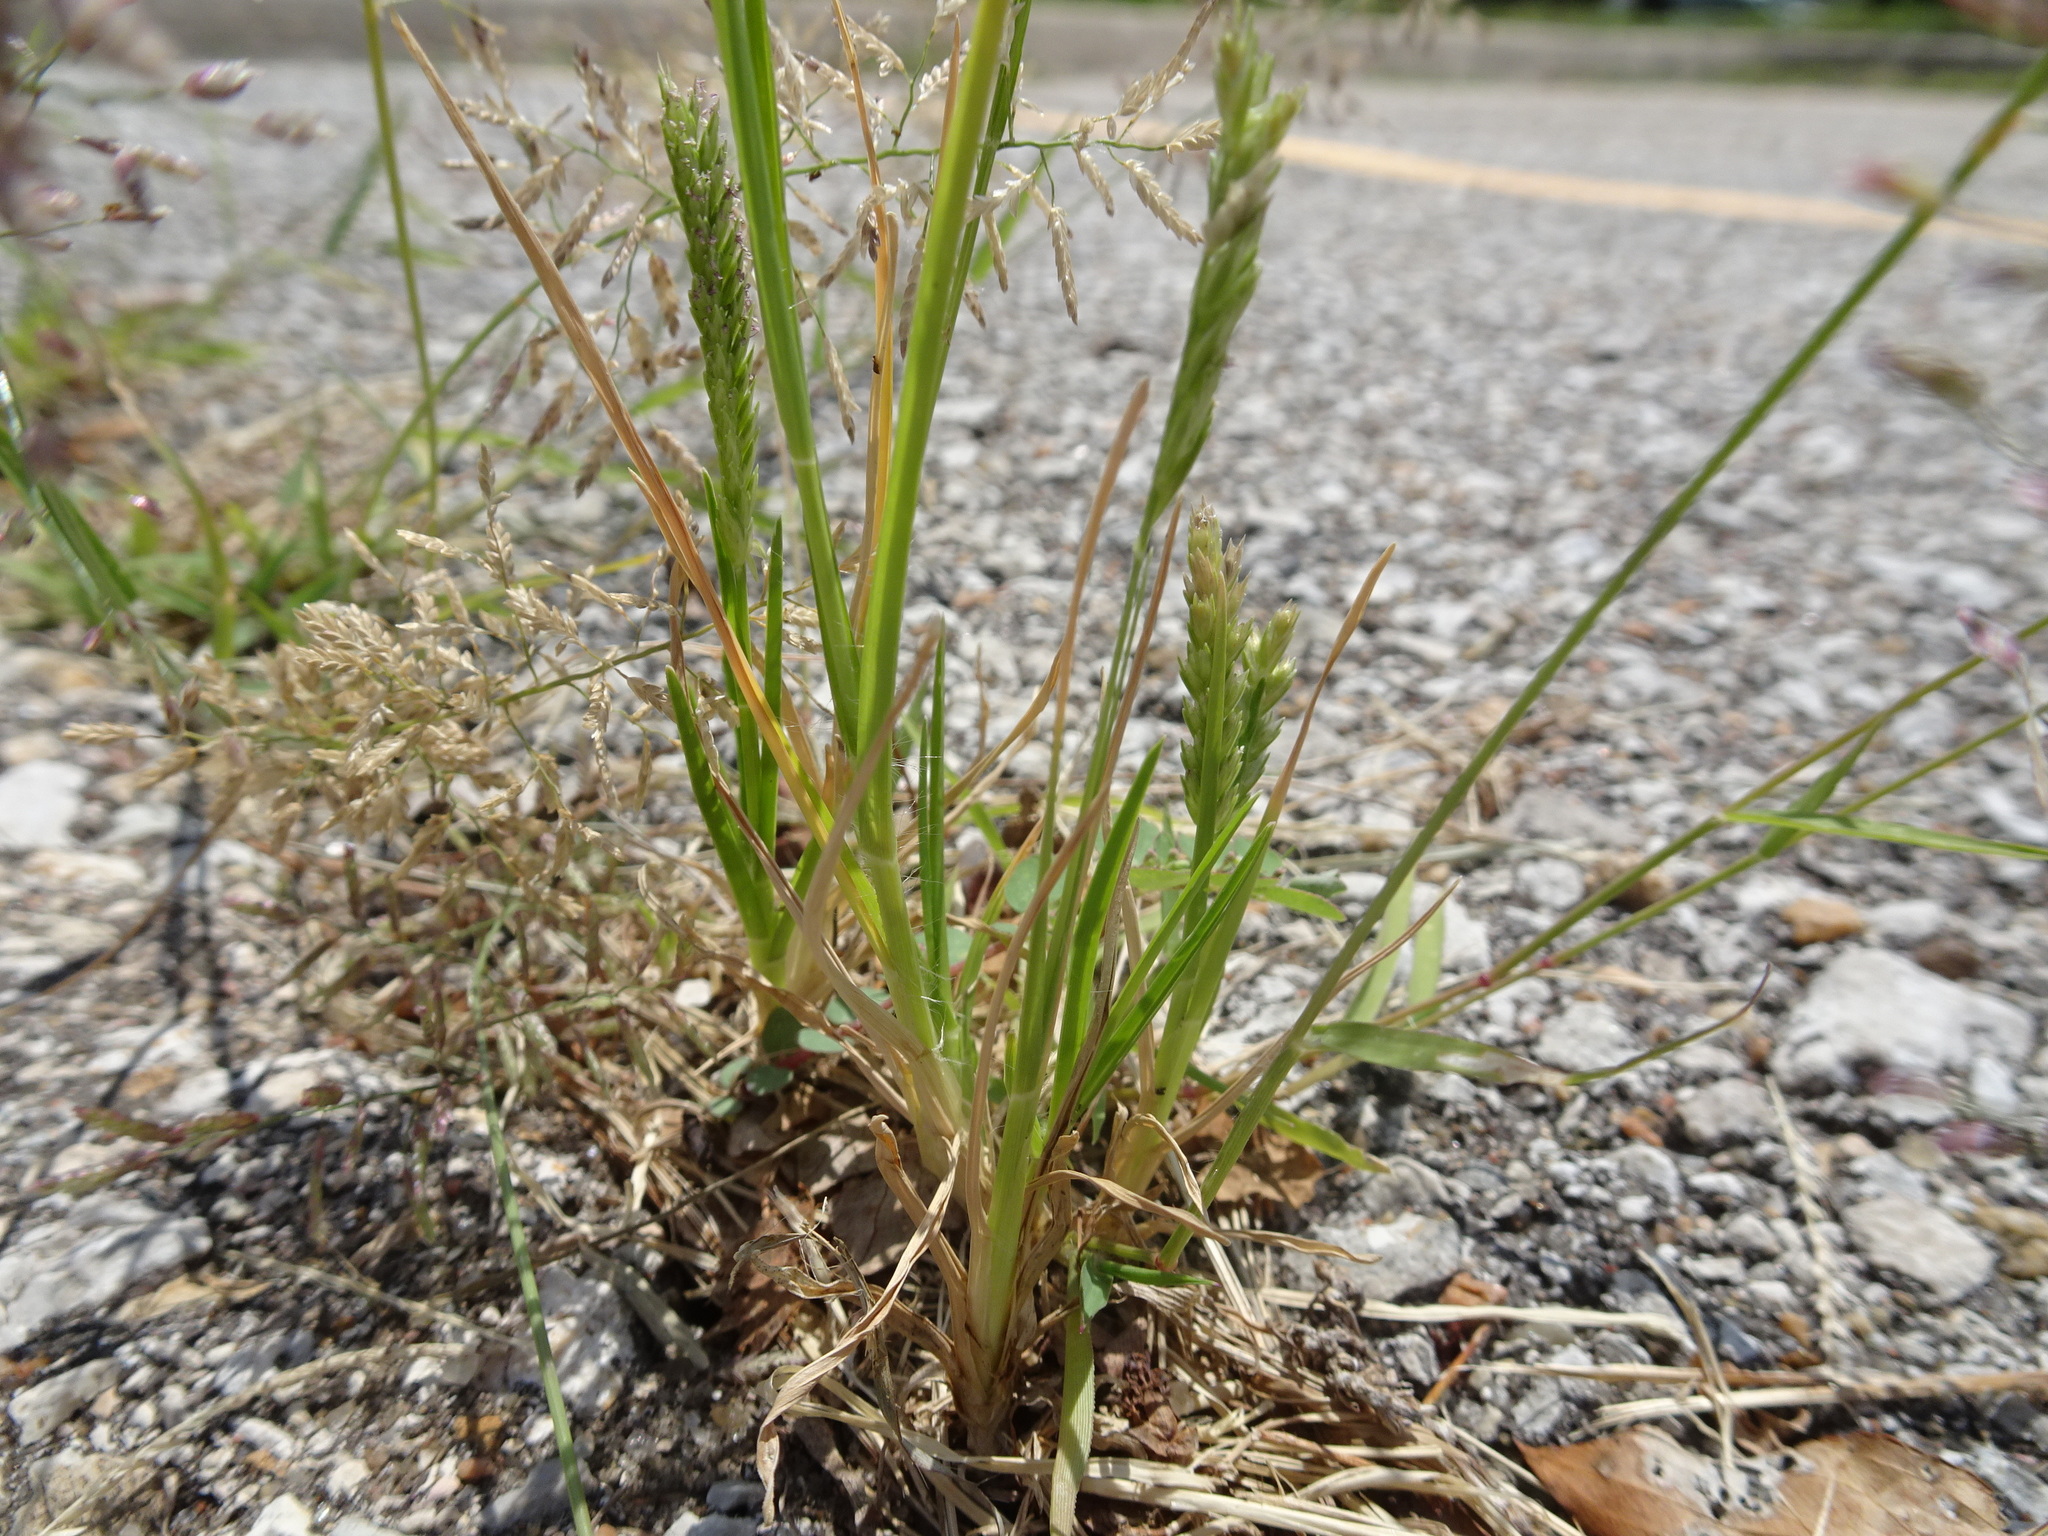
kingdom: Plantae
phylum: Tracheophyta
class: Liliopsida
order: Poales
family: Poaceae
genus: Eleusine
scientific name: Eleusine indica
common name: Yard-grass
